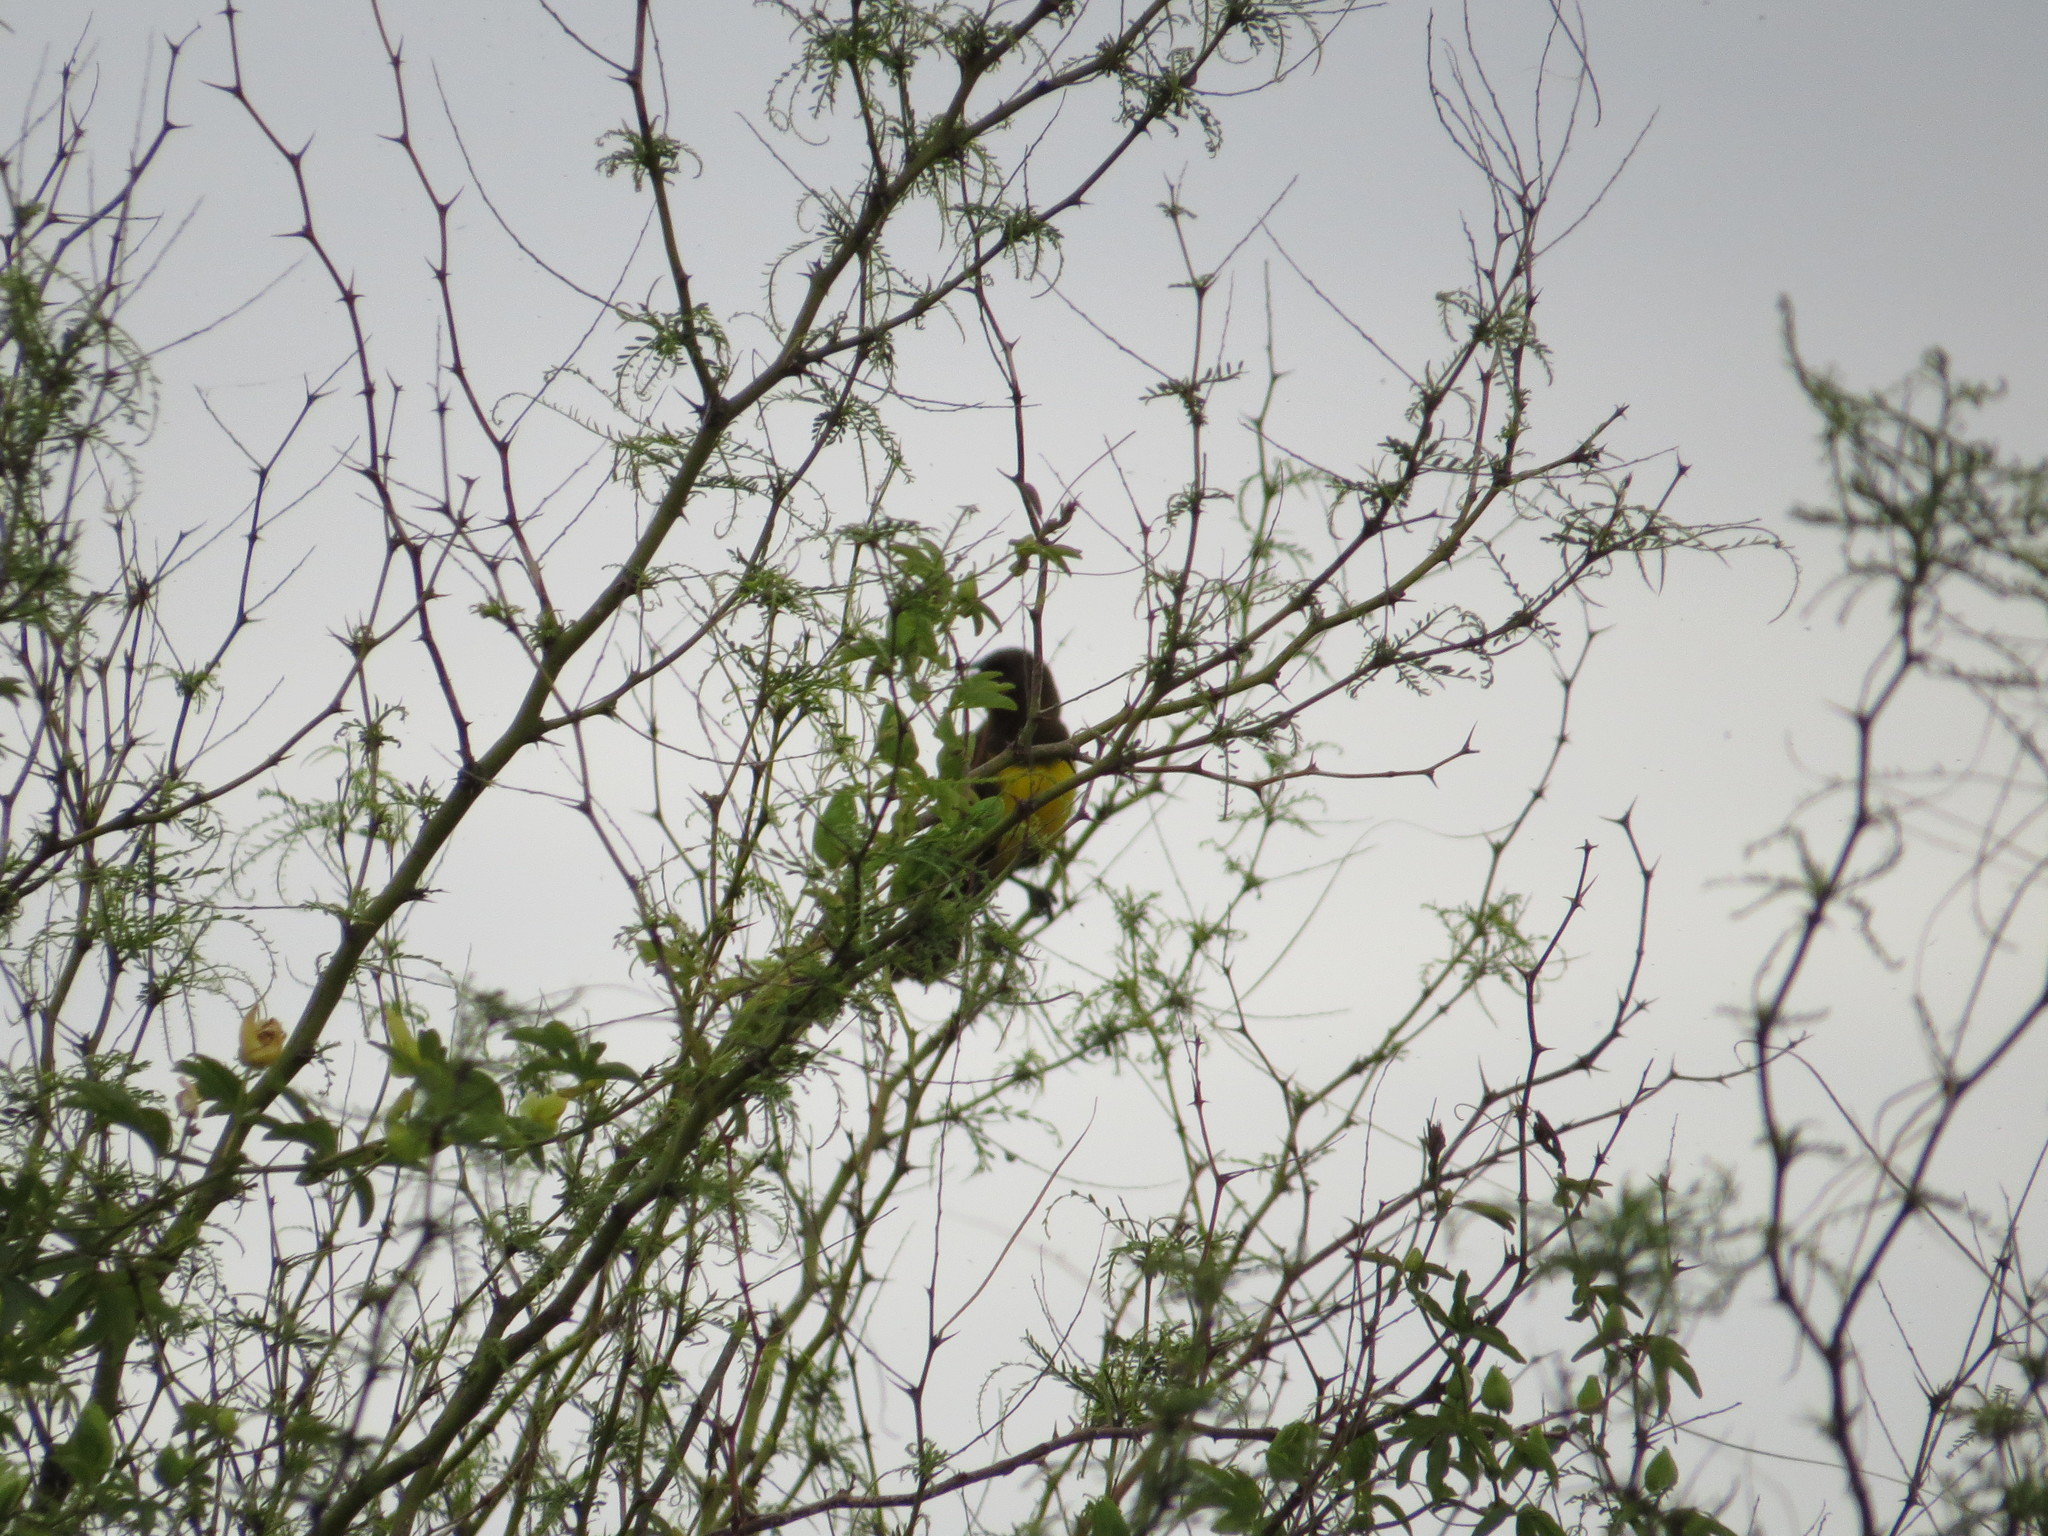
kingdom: Animalia
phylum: Chordata
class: Aves
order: Passeriformes
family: Icteridae
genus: Pseudoleistes
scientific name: Pseudoleistes virescens
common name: Brown-and-yellow marshbird
